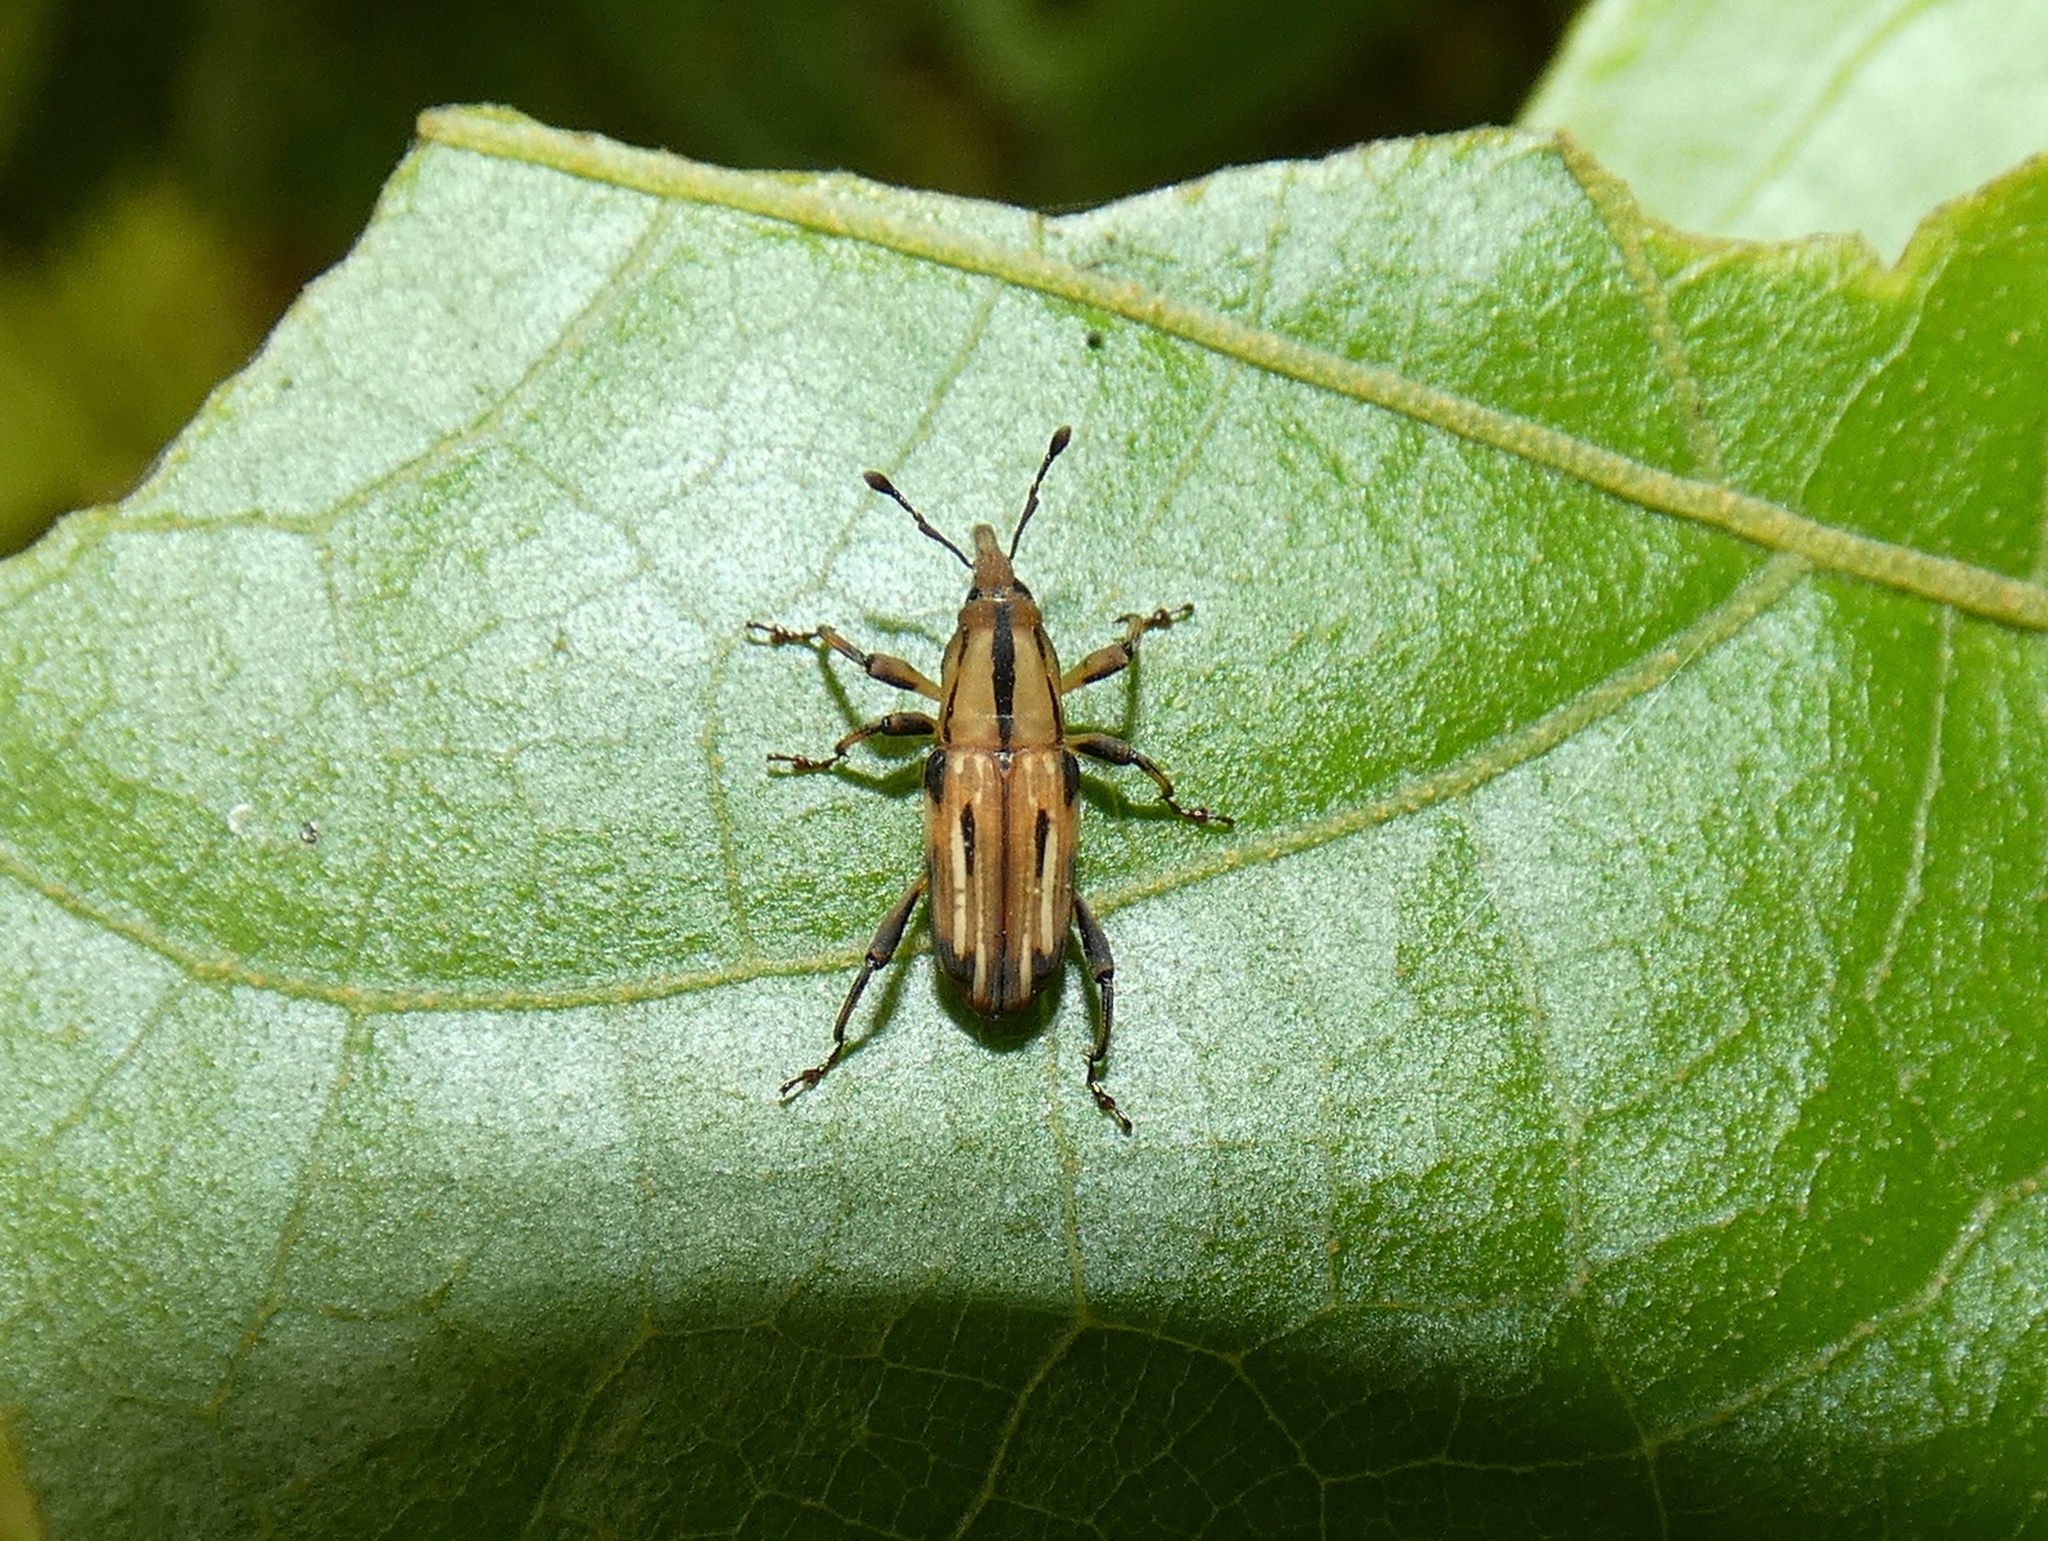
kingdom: Animalia
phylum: Arthropoda
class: Insecta
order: Coleoptera
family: Dryophthoridae
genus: Rhodobaenus
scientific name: Rhodobaenus lineiger
